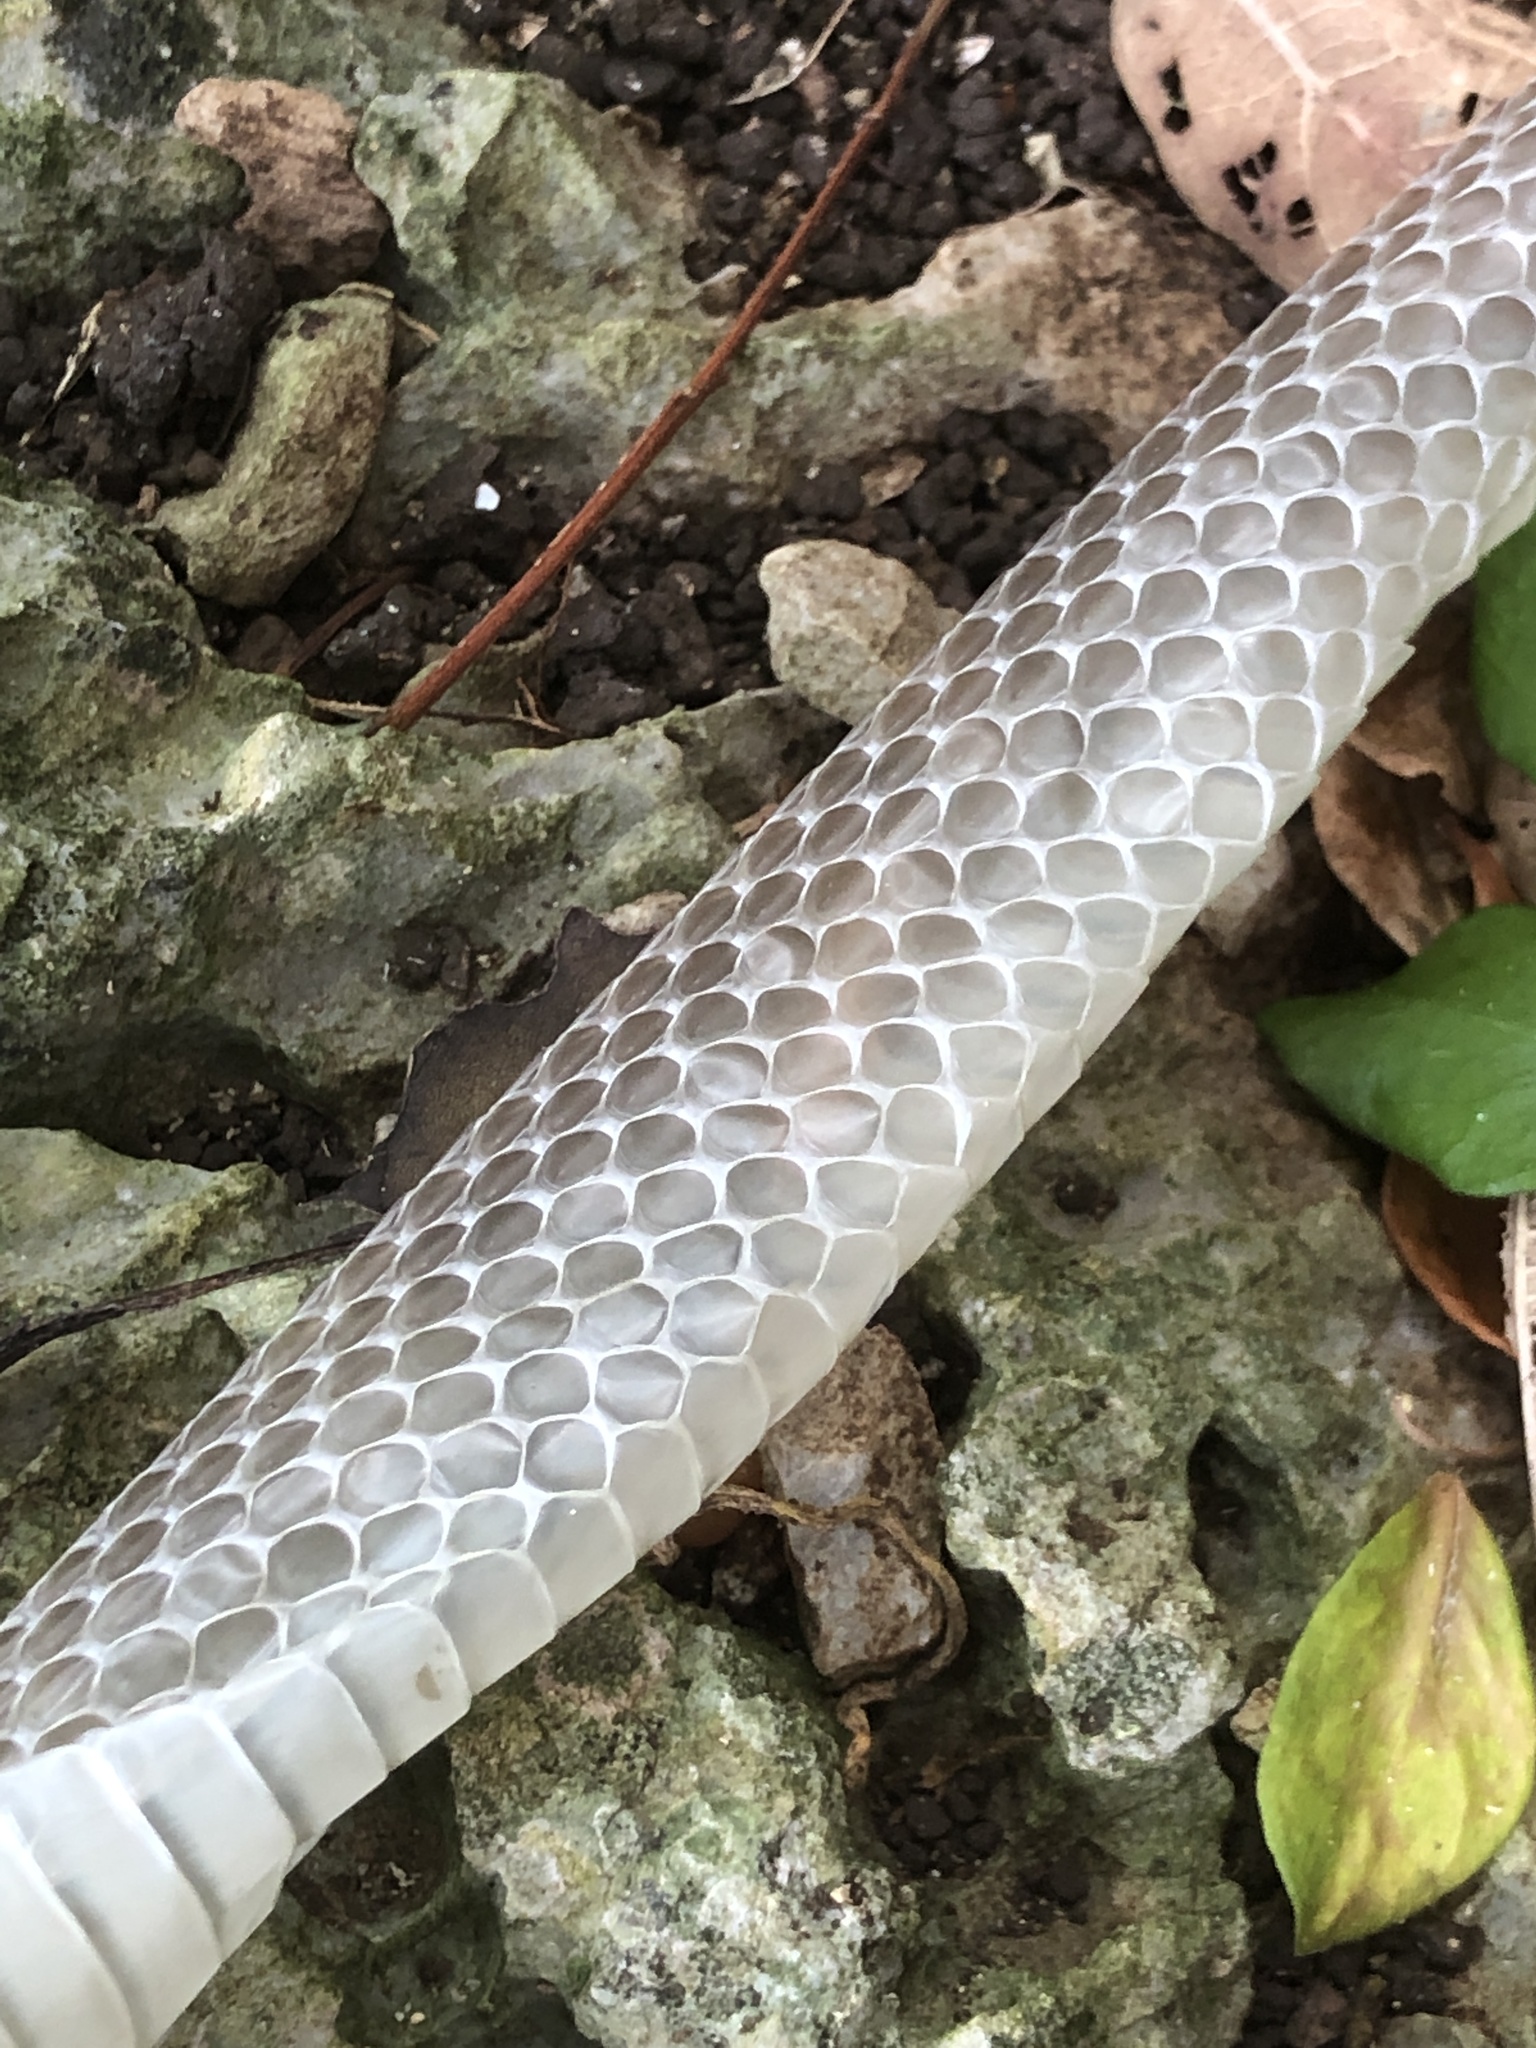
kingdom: Animalia
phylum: Chordata
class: Squamata
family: Colubridae
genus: Ptyas
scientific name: Ptyas semicarinata
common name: Ryukyu green snake
